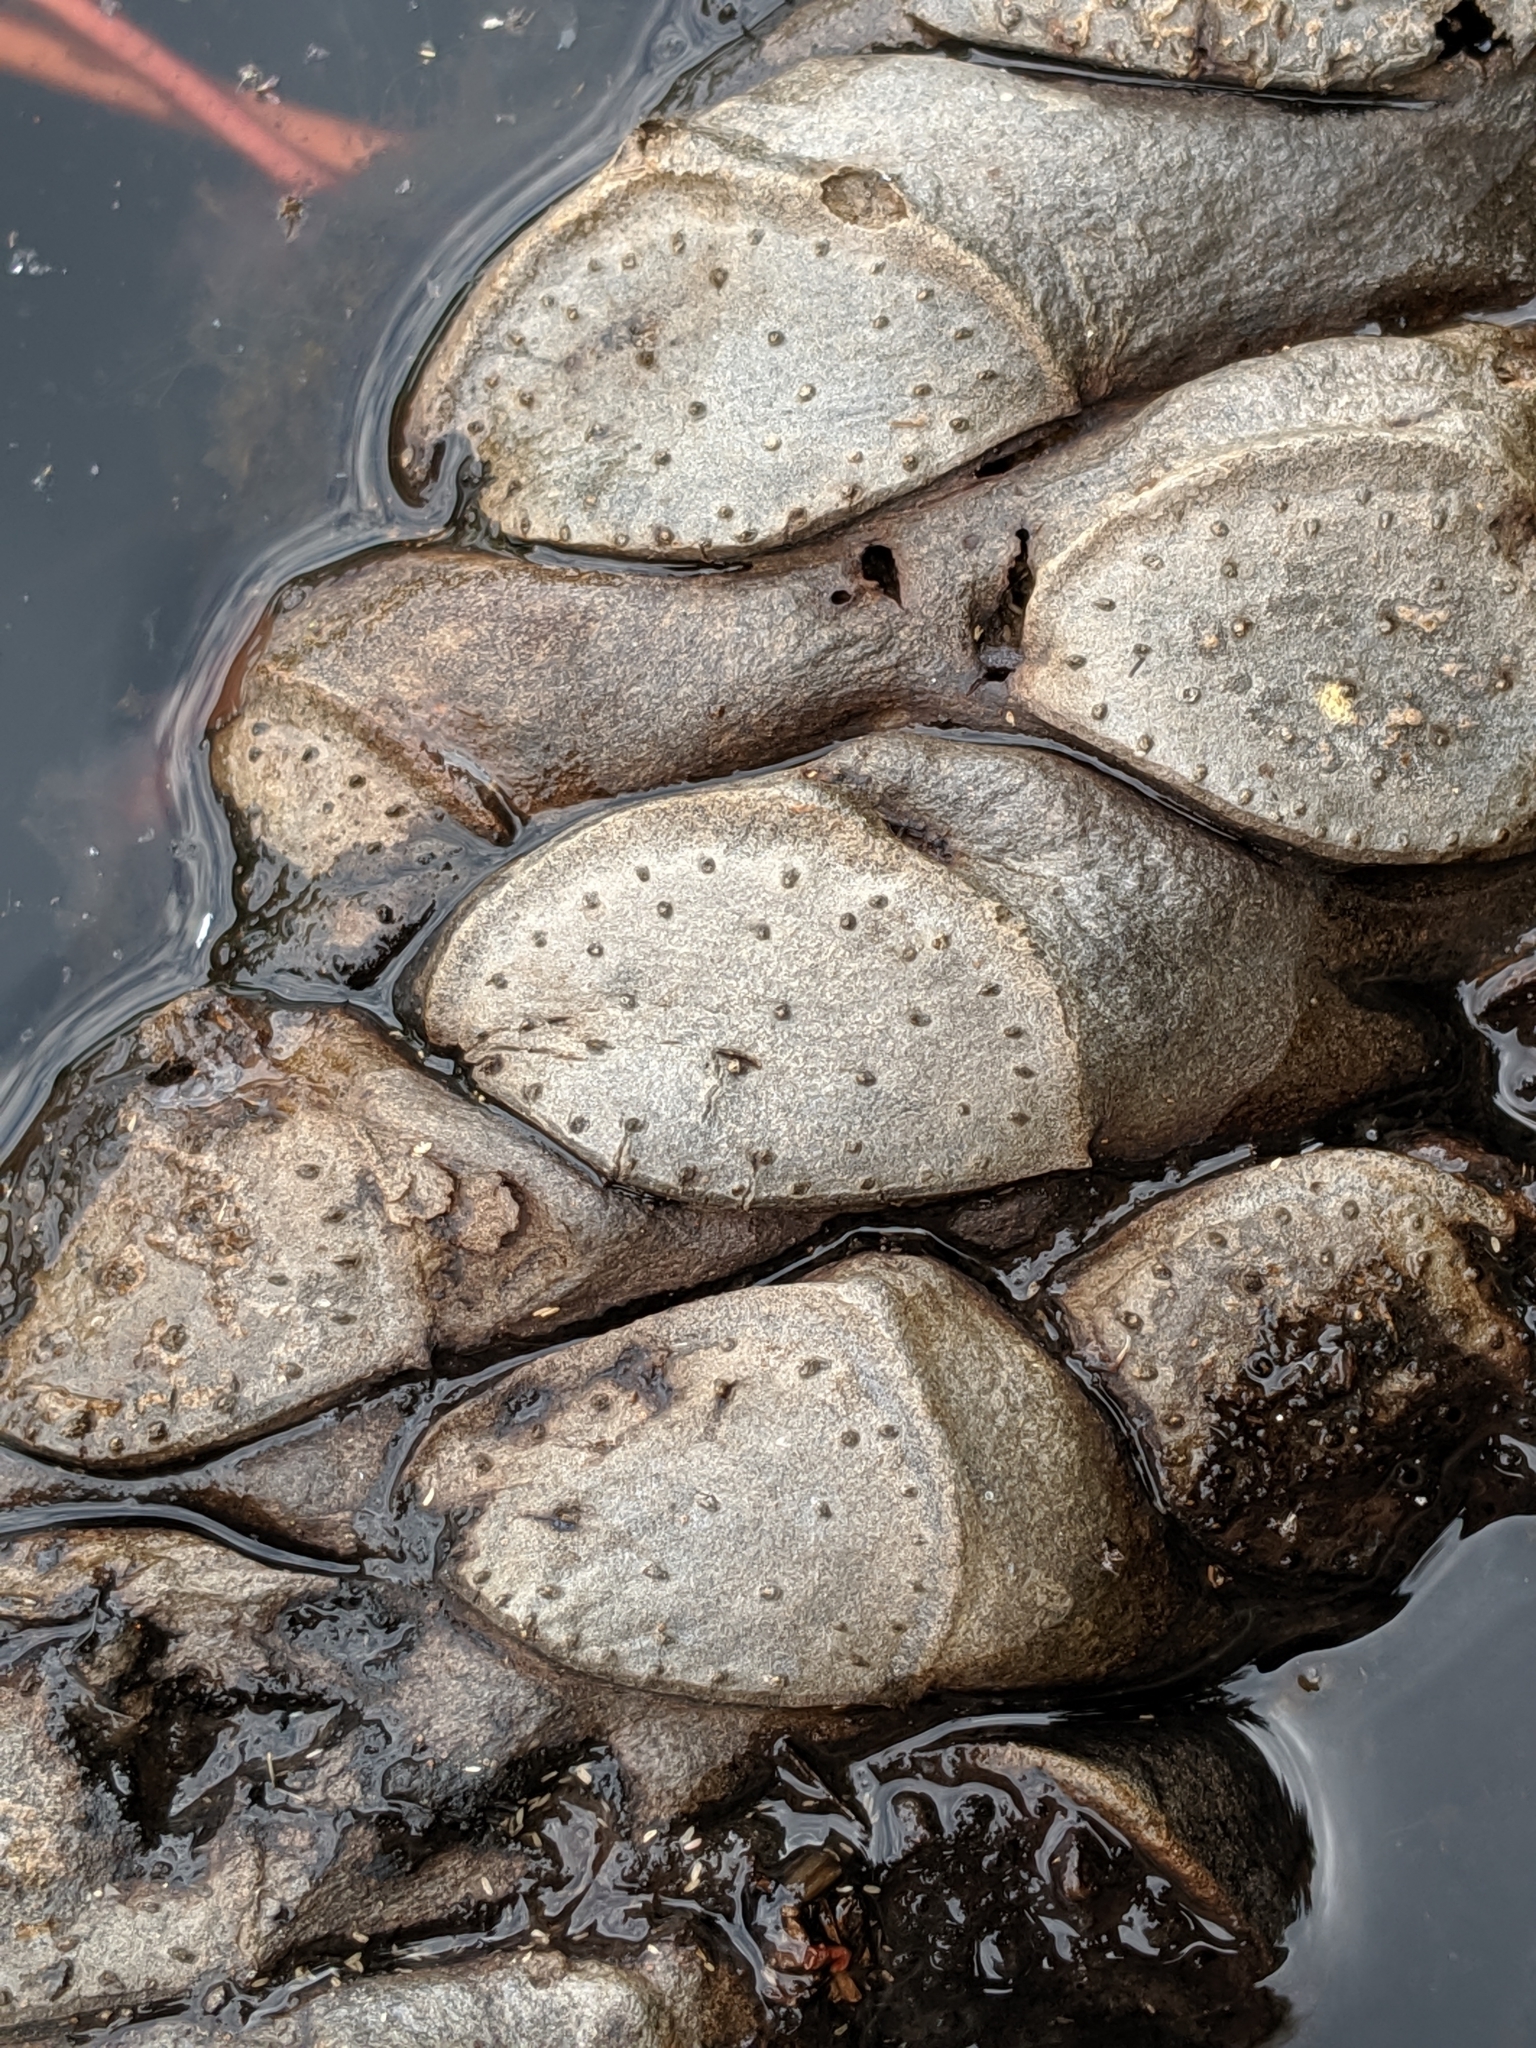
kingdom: Plantae
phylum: Tracheophyta
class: Magnoliopsida
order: Nymphaeales
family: Nymphaeaceae
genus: Nuphar
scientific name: Nuphar polysepala
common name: Rocky mountain cow-lily
